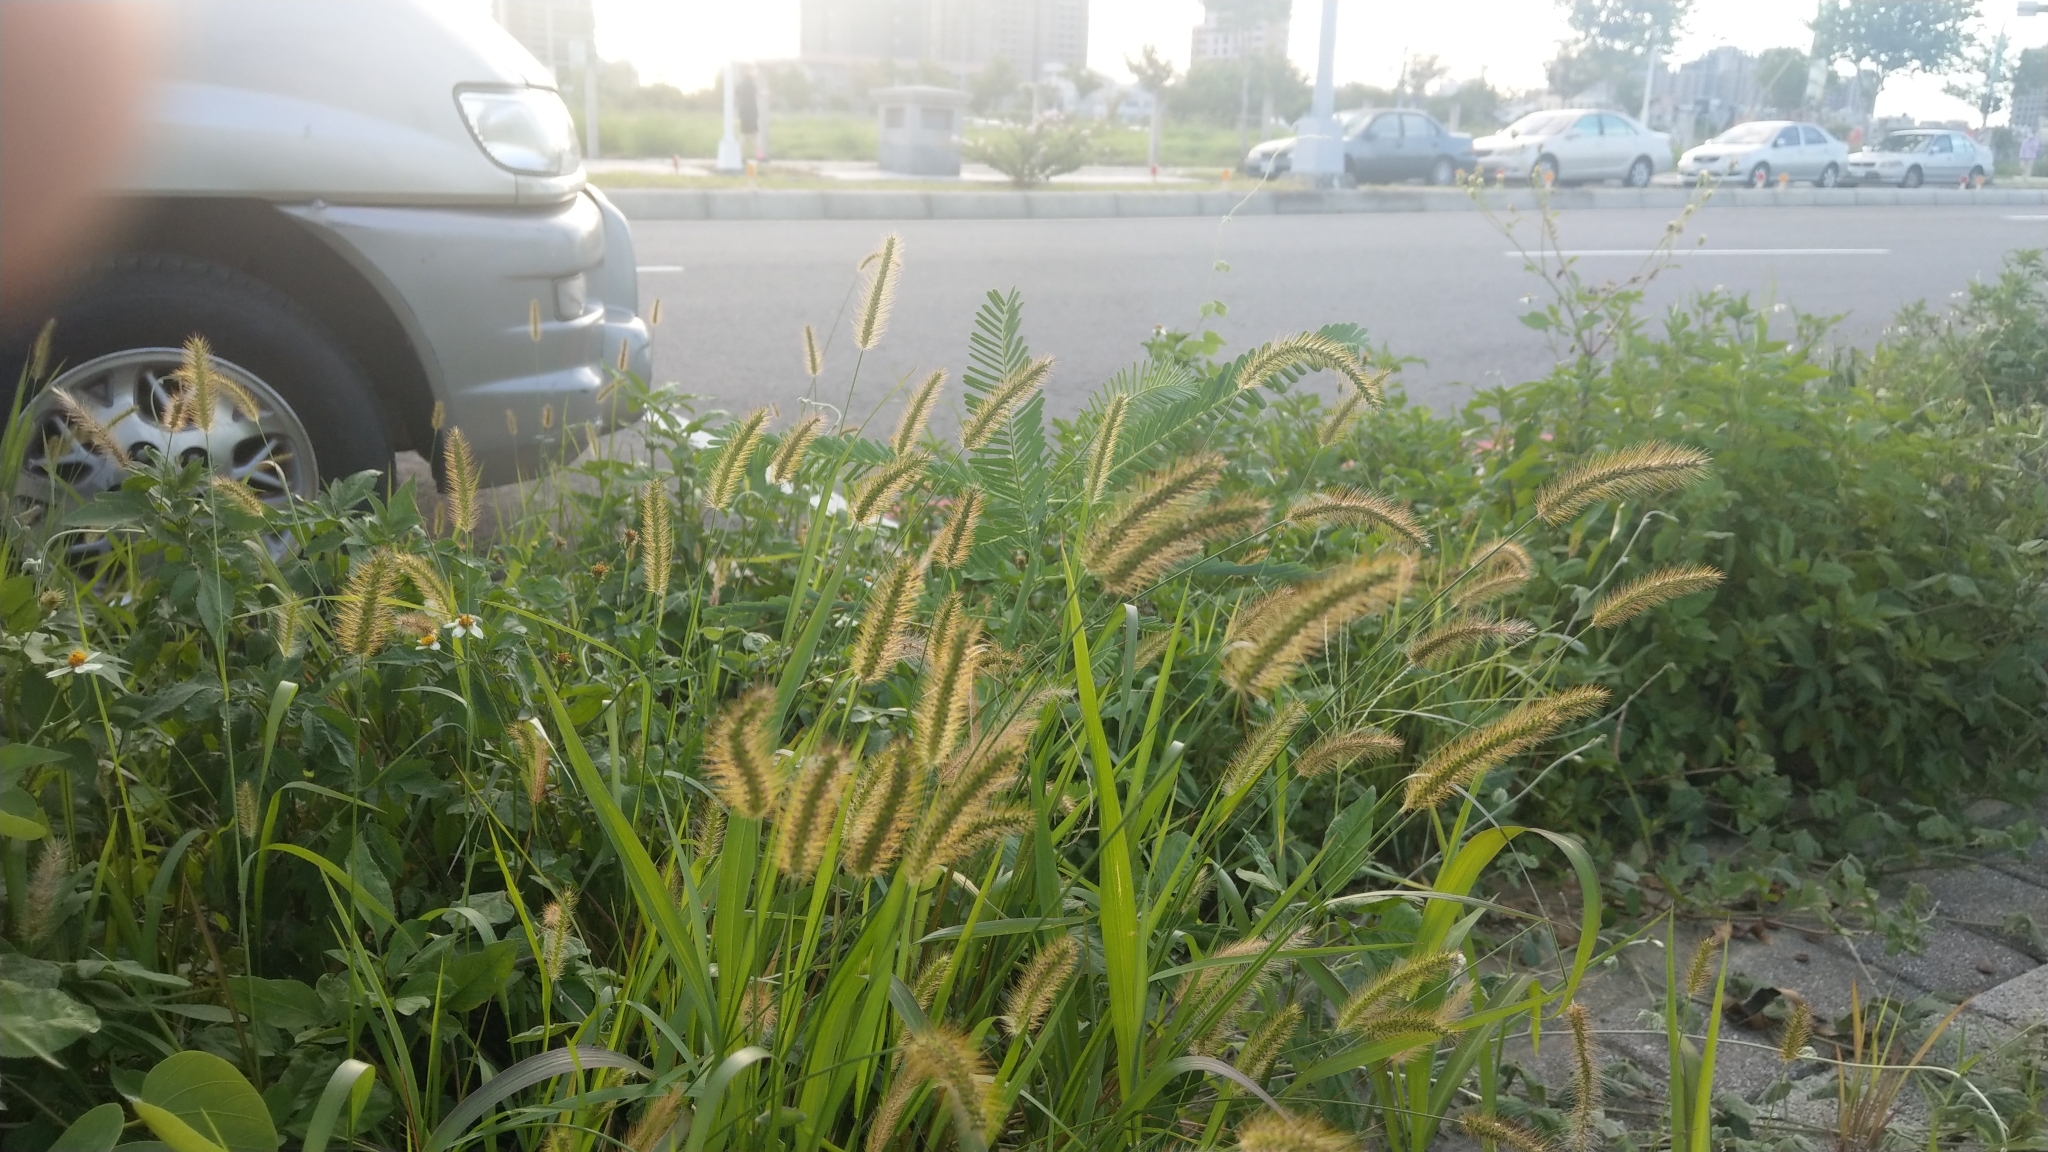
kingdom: Plantae
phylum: Tracheophyta
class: Liliopsida
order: Poales
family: Poaceae
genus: Setaria
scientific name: Setaria parviflora
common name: Knotroot bristle-grass
